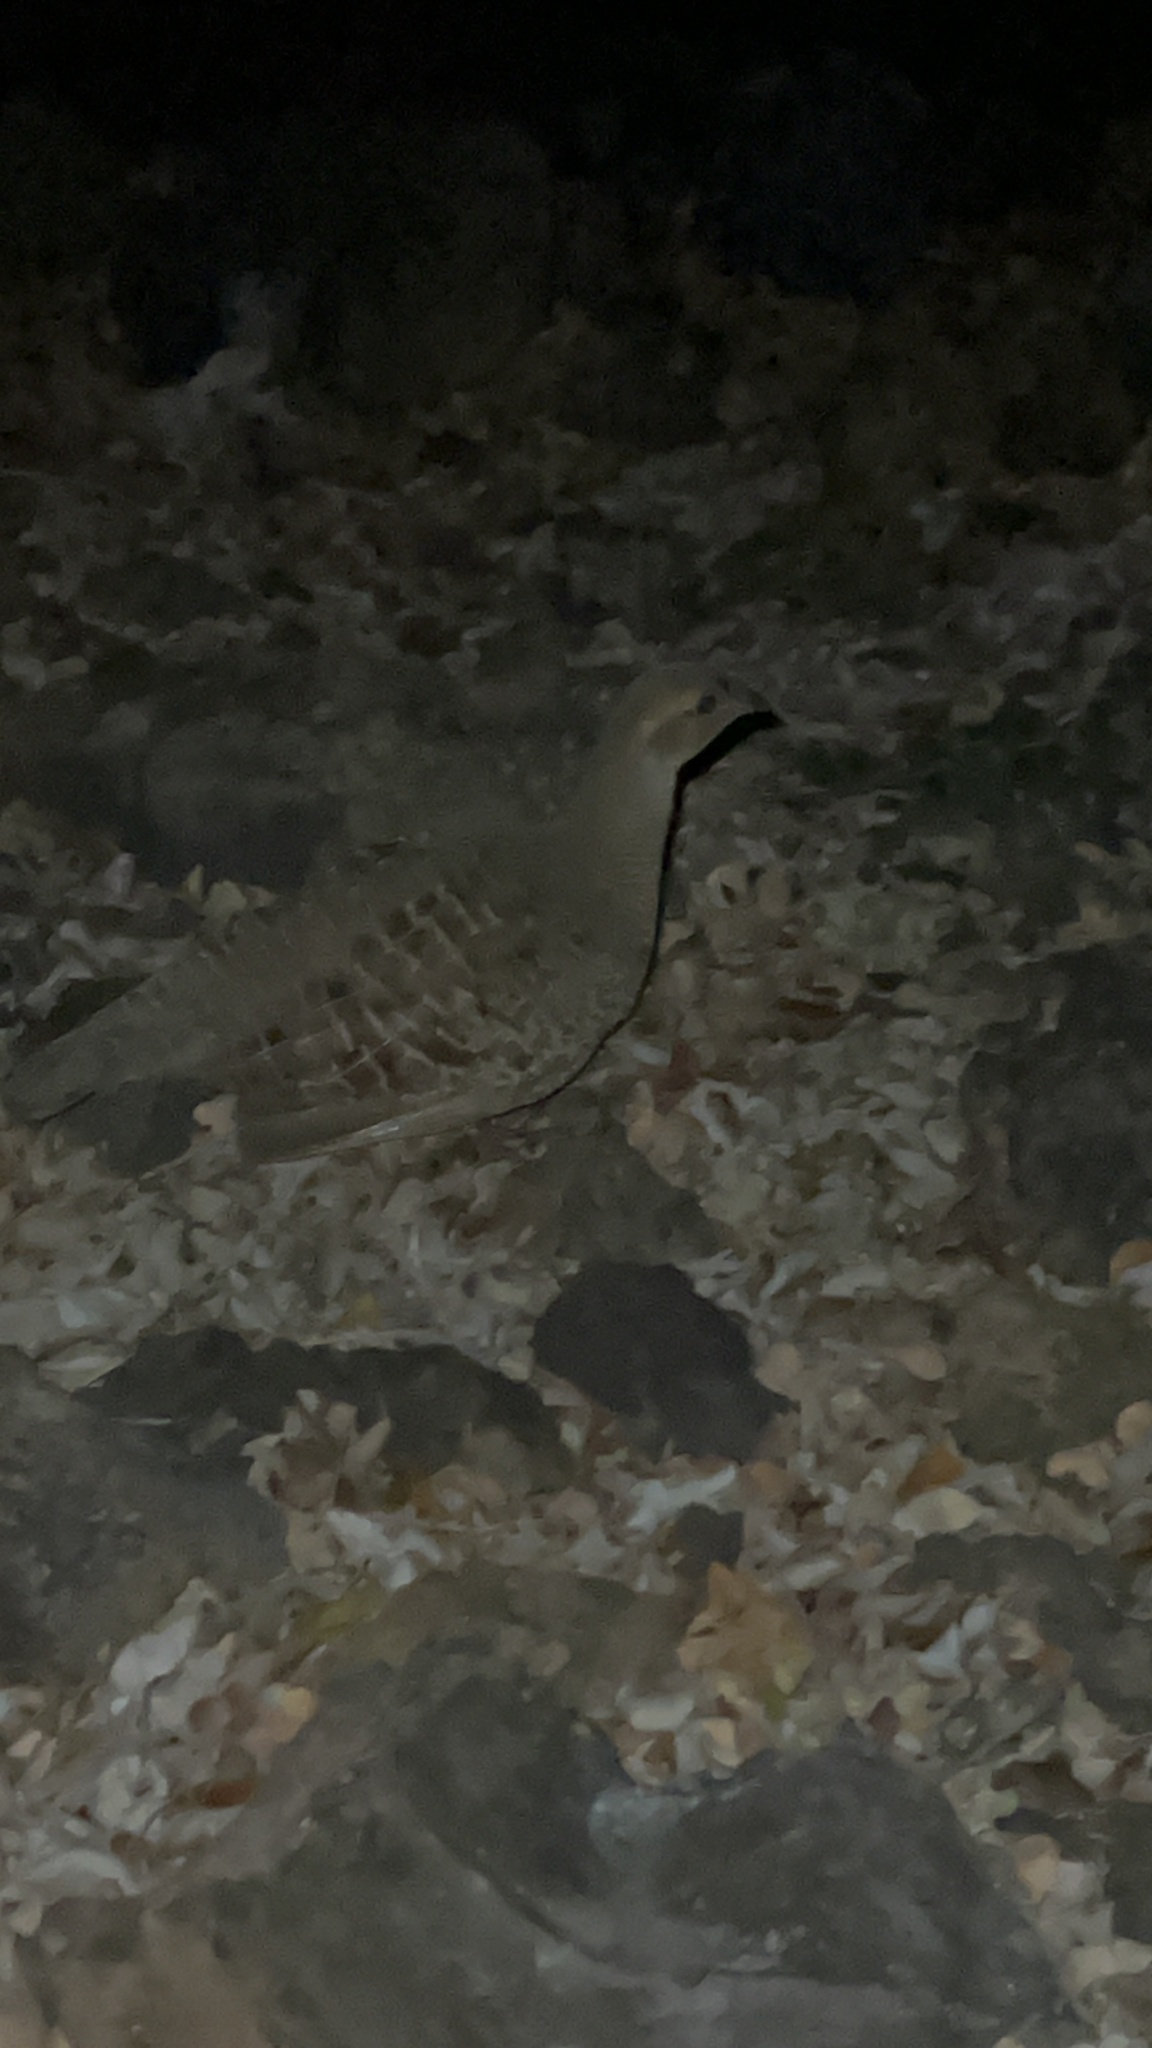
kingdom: Animalia
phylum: Chordata
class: Aves
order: Galliformes
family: Phasianidae
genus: Ortygornis
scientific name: Ortygornis pondicerianus
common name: Grey francolin
